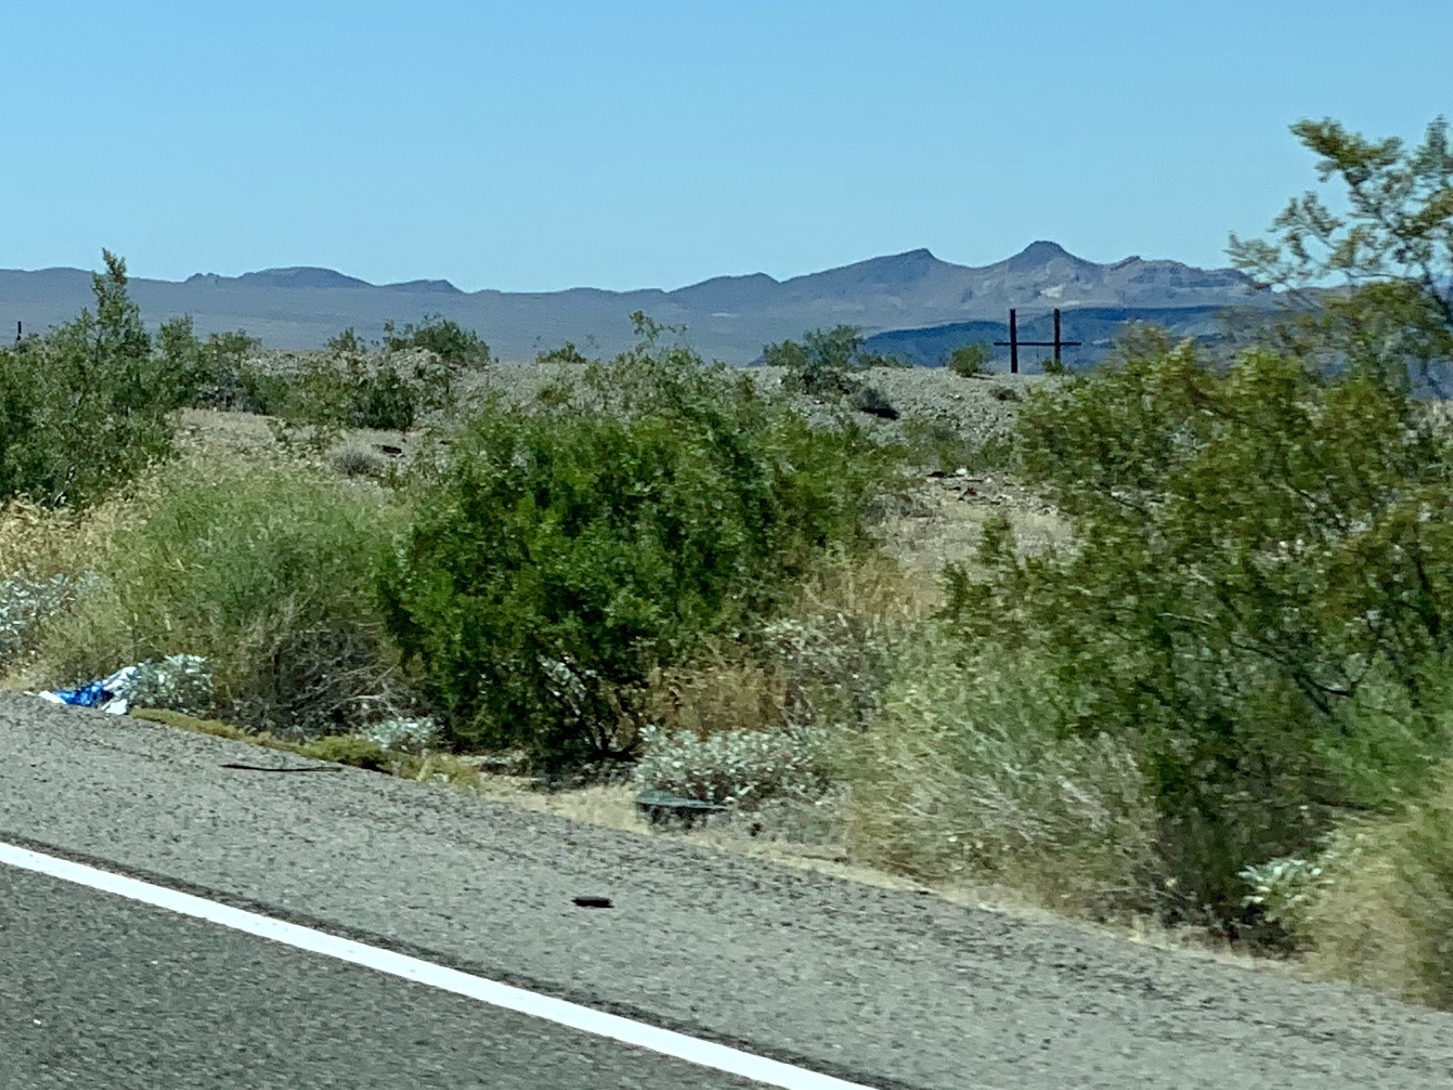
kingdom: Plantae
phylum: Tracheophyta
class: Magnoliopsida
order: Zygophyllales
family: Zygophyllaceae
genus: Larrea
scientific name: Larrea tridentata
